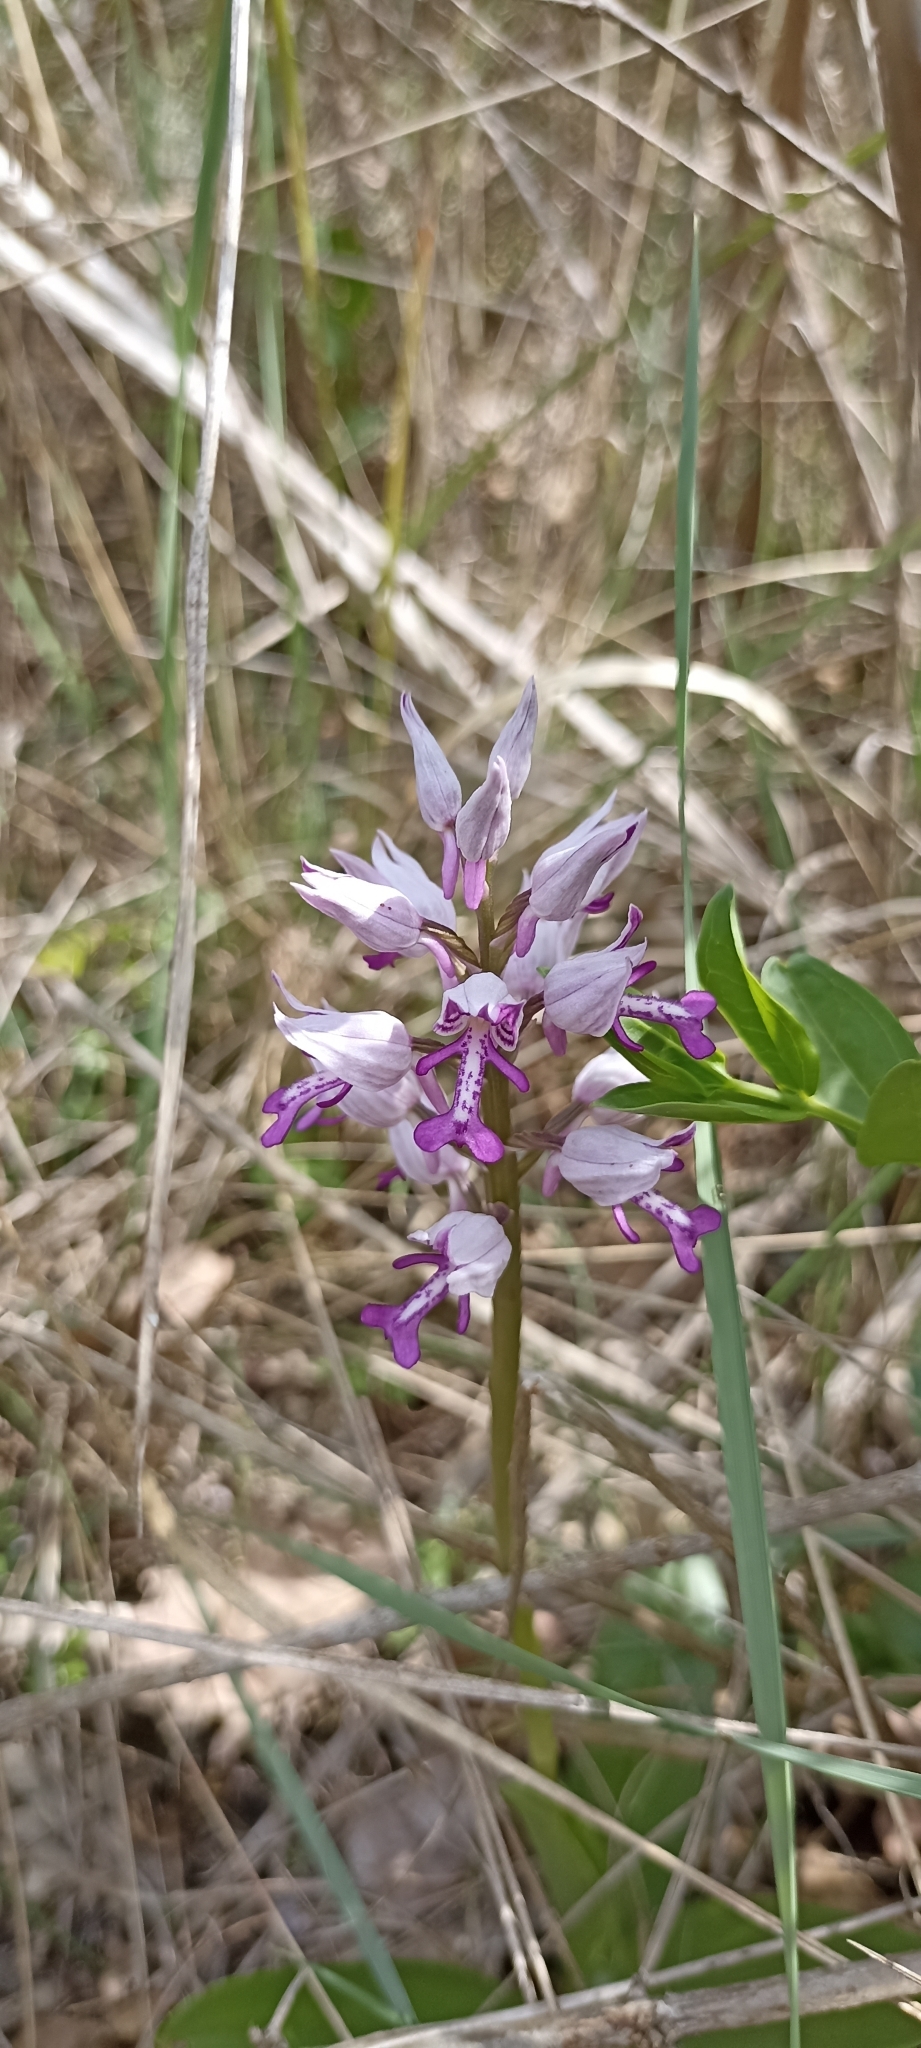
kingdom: Plantae
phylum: Tracheophyta
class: Liliopsida
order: Asparagales
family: Orchidaceae
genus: Orchis
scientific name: Orchis militaris
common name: Military orchid
